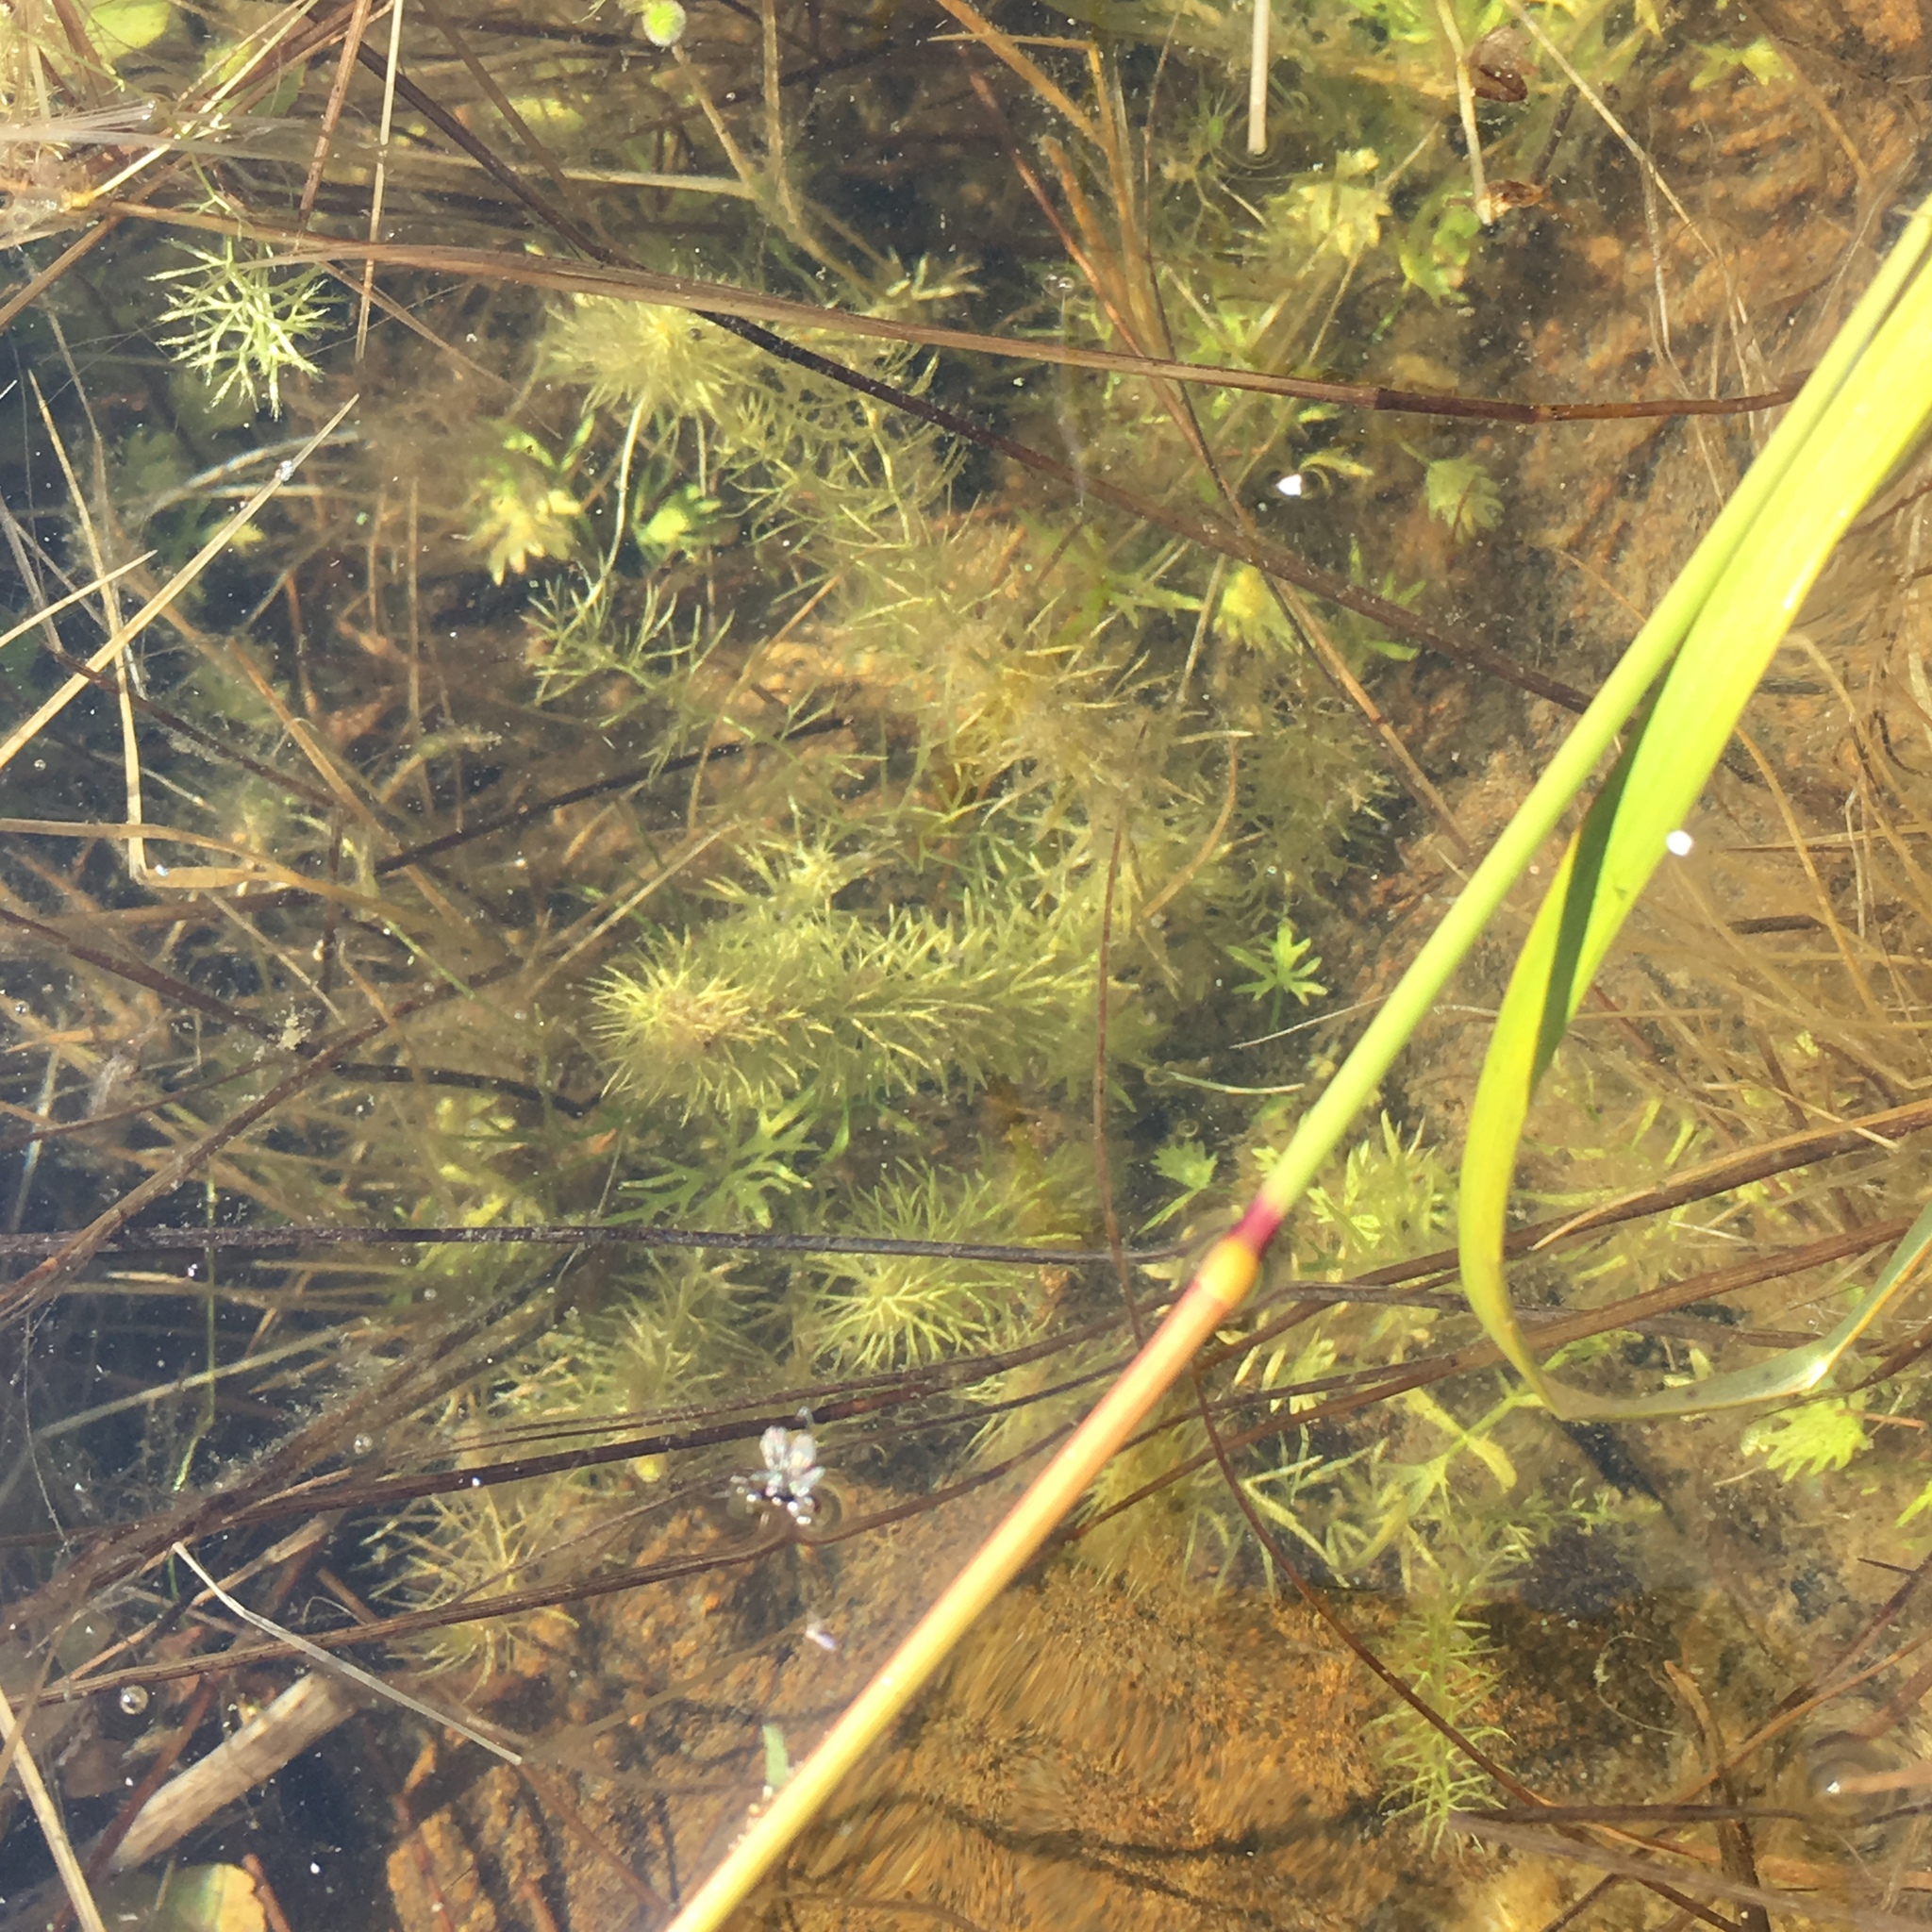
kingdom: Plantae
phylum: Tracheophyta
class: Magnoliopsida
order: Lamiales
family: Lentibulariaceae
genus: Utricularia
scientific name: Utricularia intermedia
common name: Intermediate bladderwort
